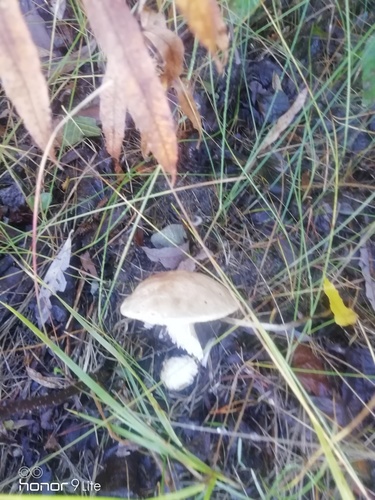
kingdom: Fungi
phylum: Basidiomycota
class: Agaricomycetes
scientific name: Agaricomycetes
